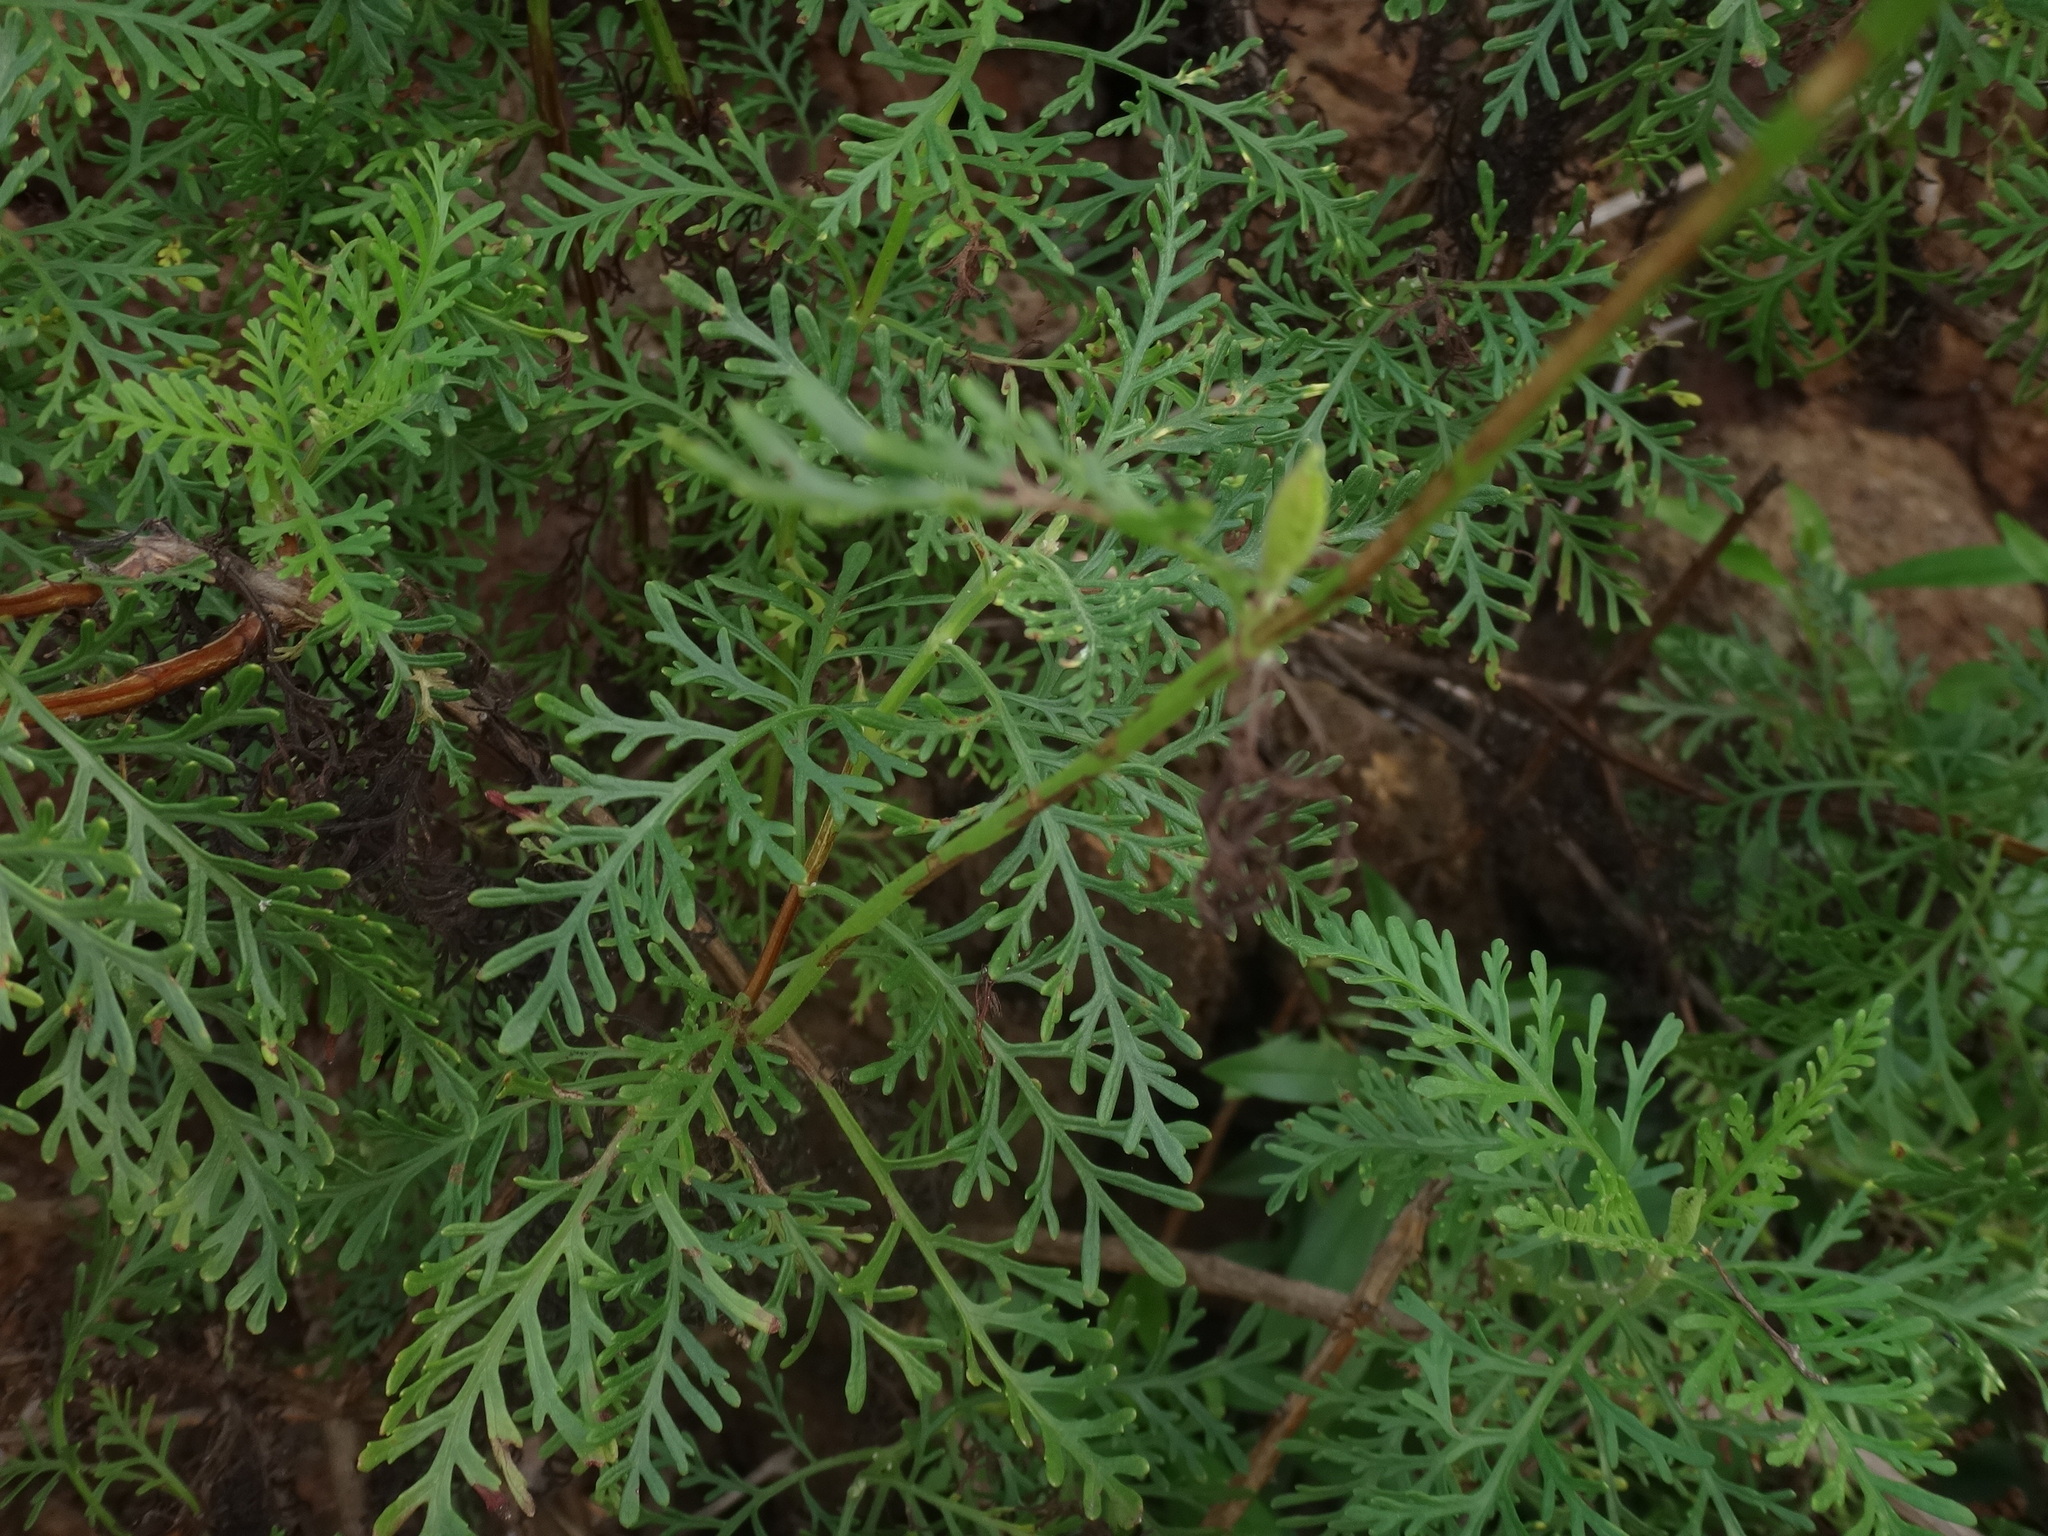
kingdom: Plantae
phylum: Tracheophyta
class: Magnoliopsida
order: Lamiales
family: Lamiaceae
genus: Lavandula
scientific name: Lavandula canariensis
